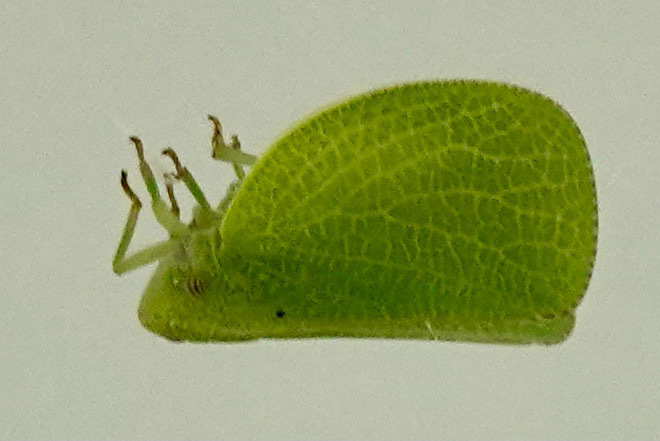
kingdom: Animalia
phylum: Arthropoda
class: Insecta
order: Hemiptera
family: Acanaloniidae
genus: Acanalonia
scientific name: Acanalonia conica
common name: Green cone-headed planthopper
